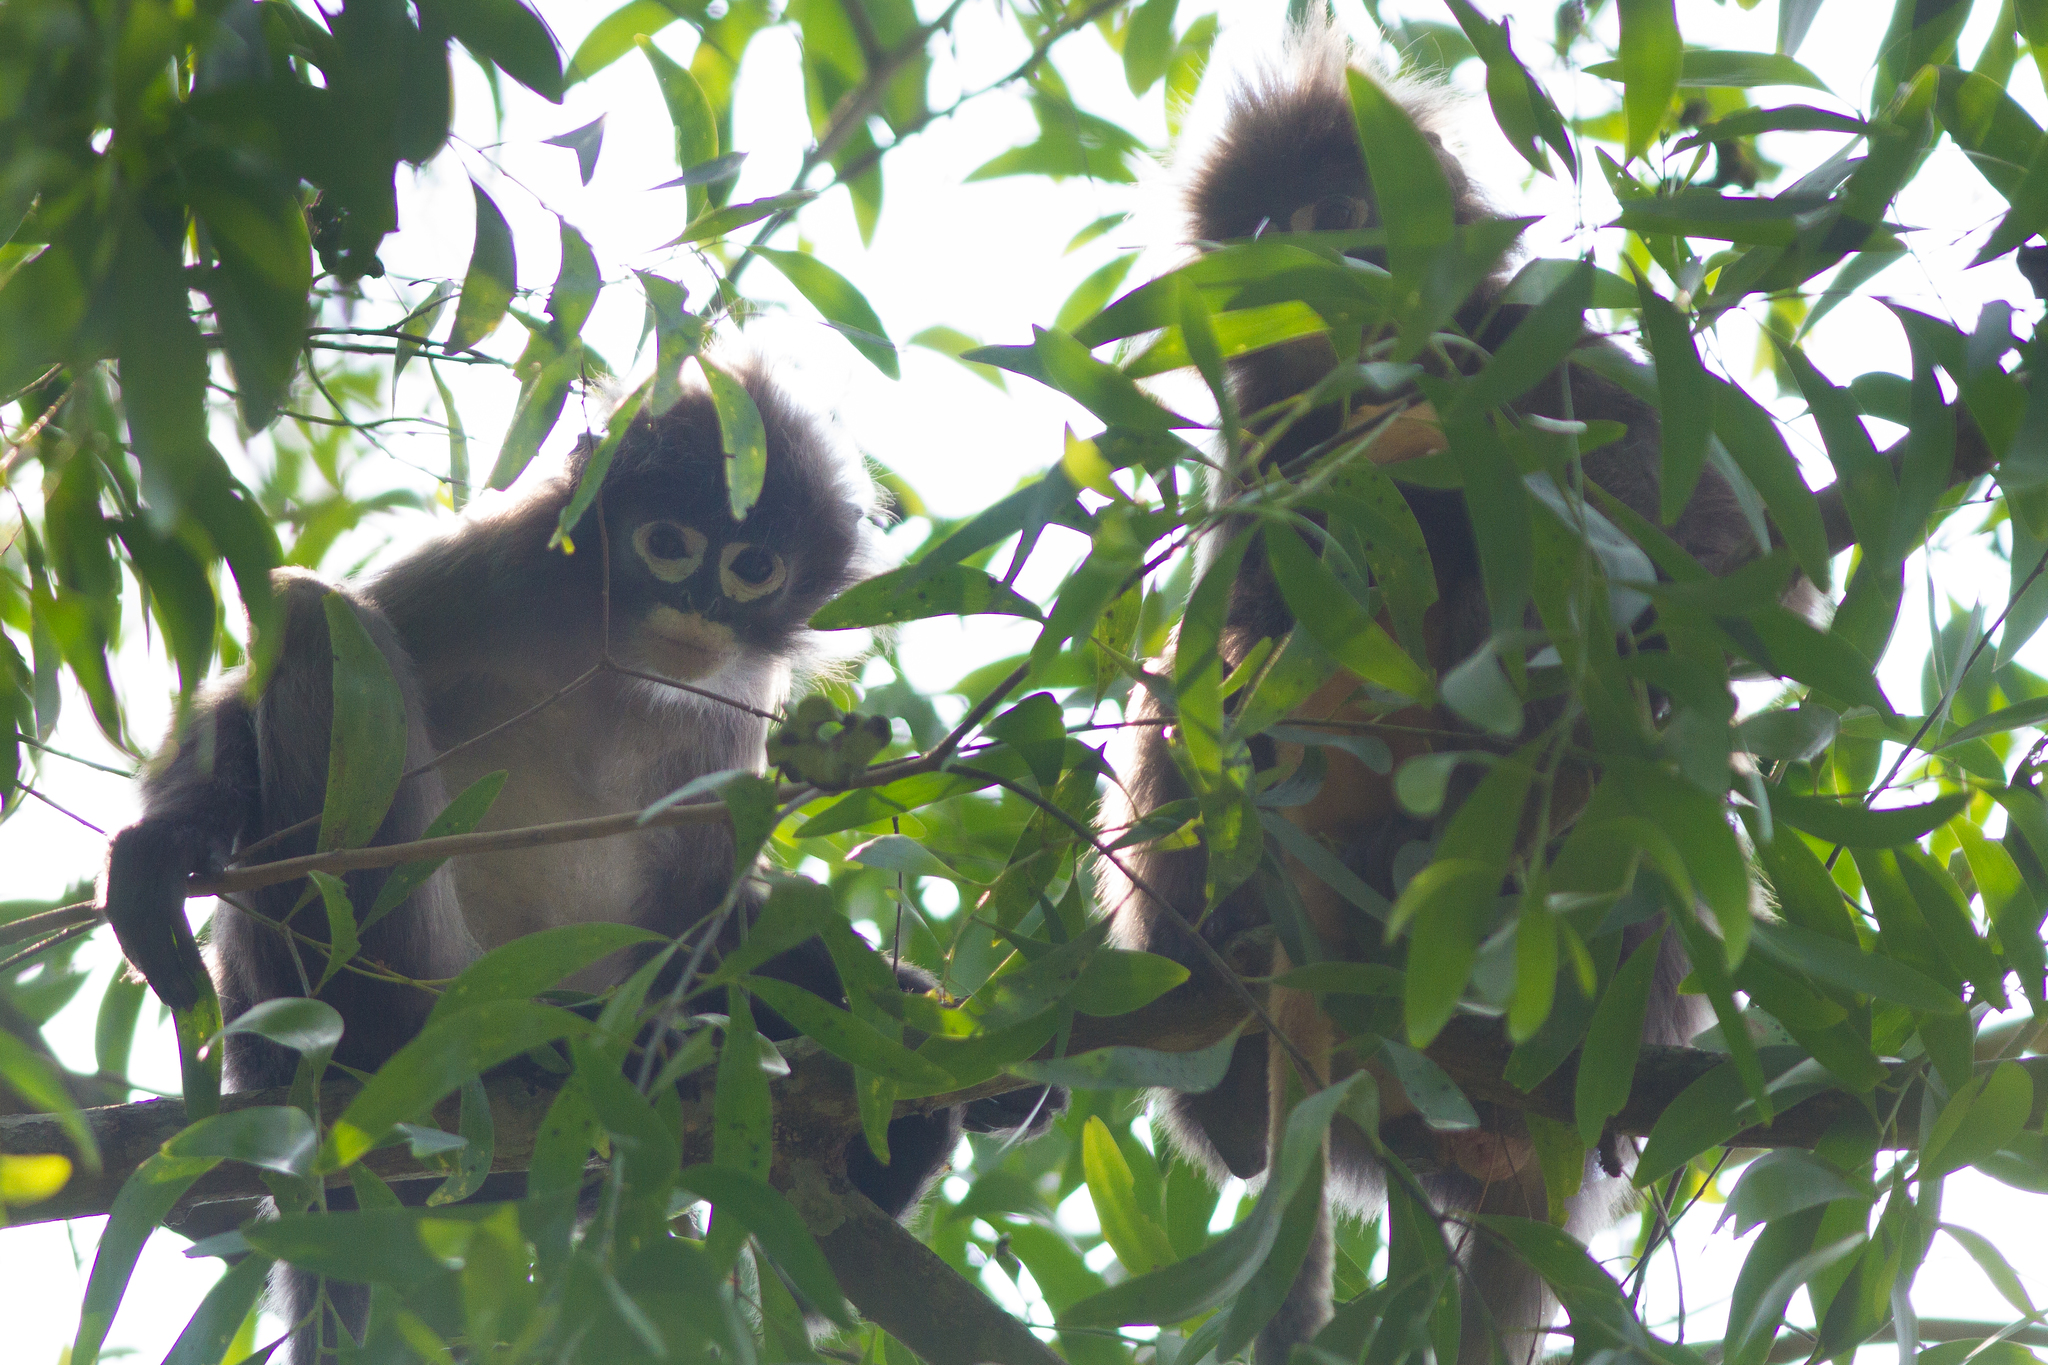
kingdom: Animalia
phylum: Chordata
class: Mammalia
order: Primates
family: Cercopithecidae
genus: Trachypithecus
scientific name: Trachypithecus phayrei
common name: Phayre's leaf monkey
